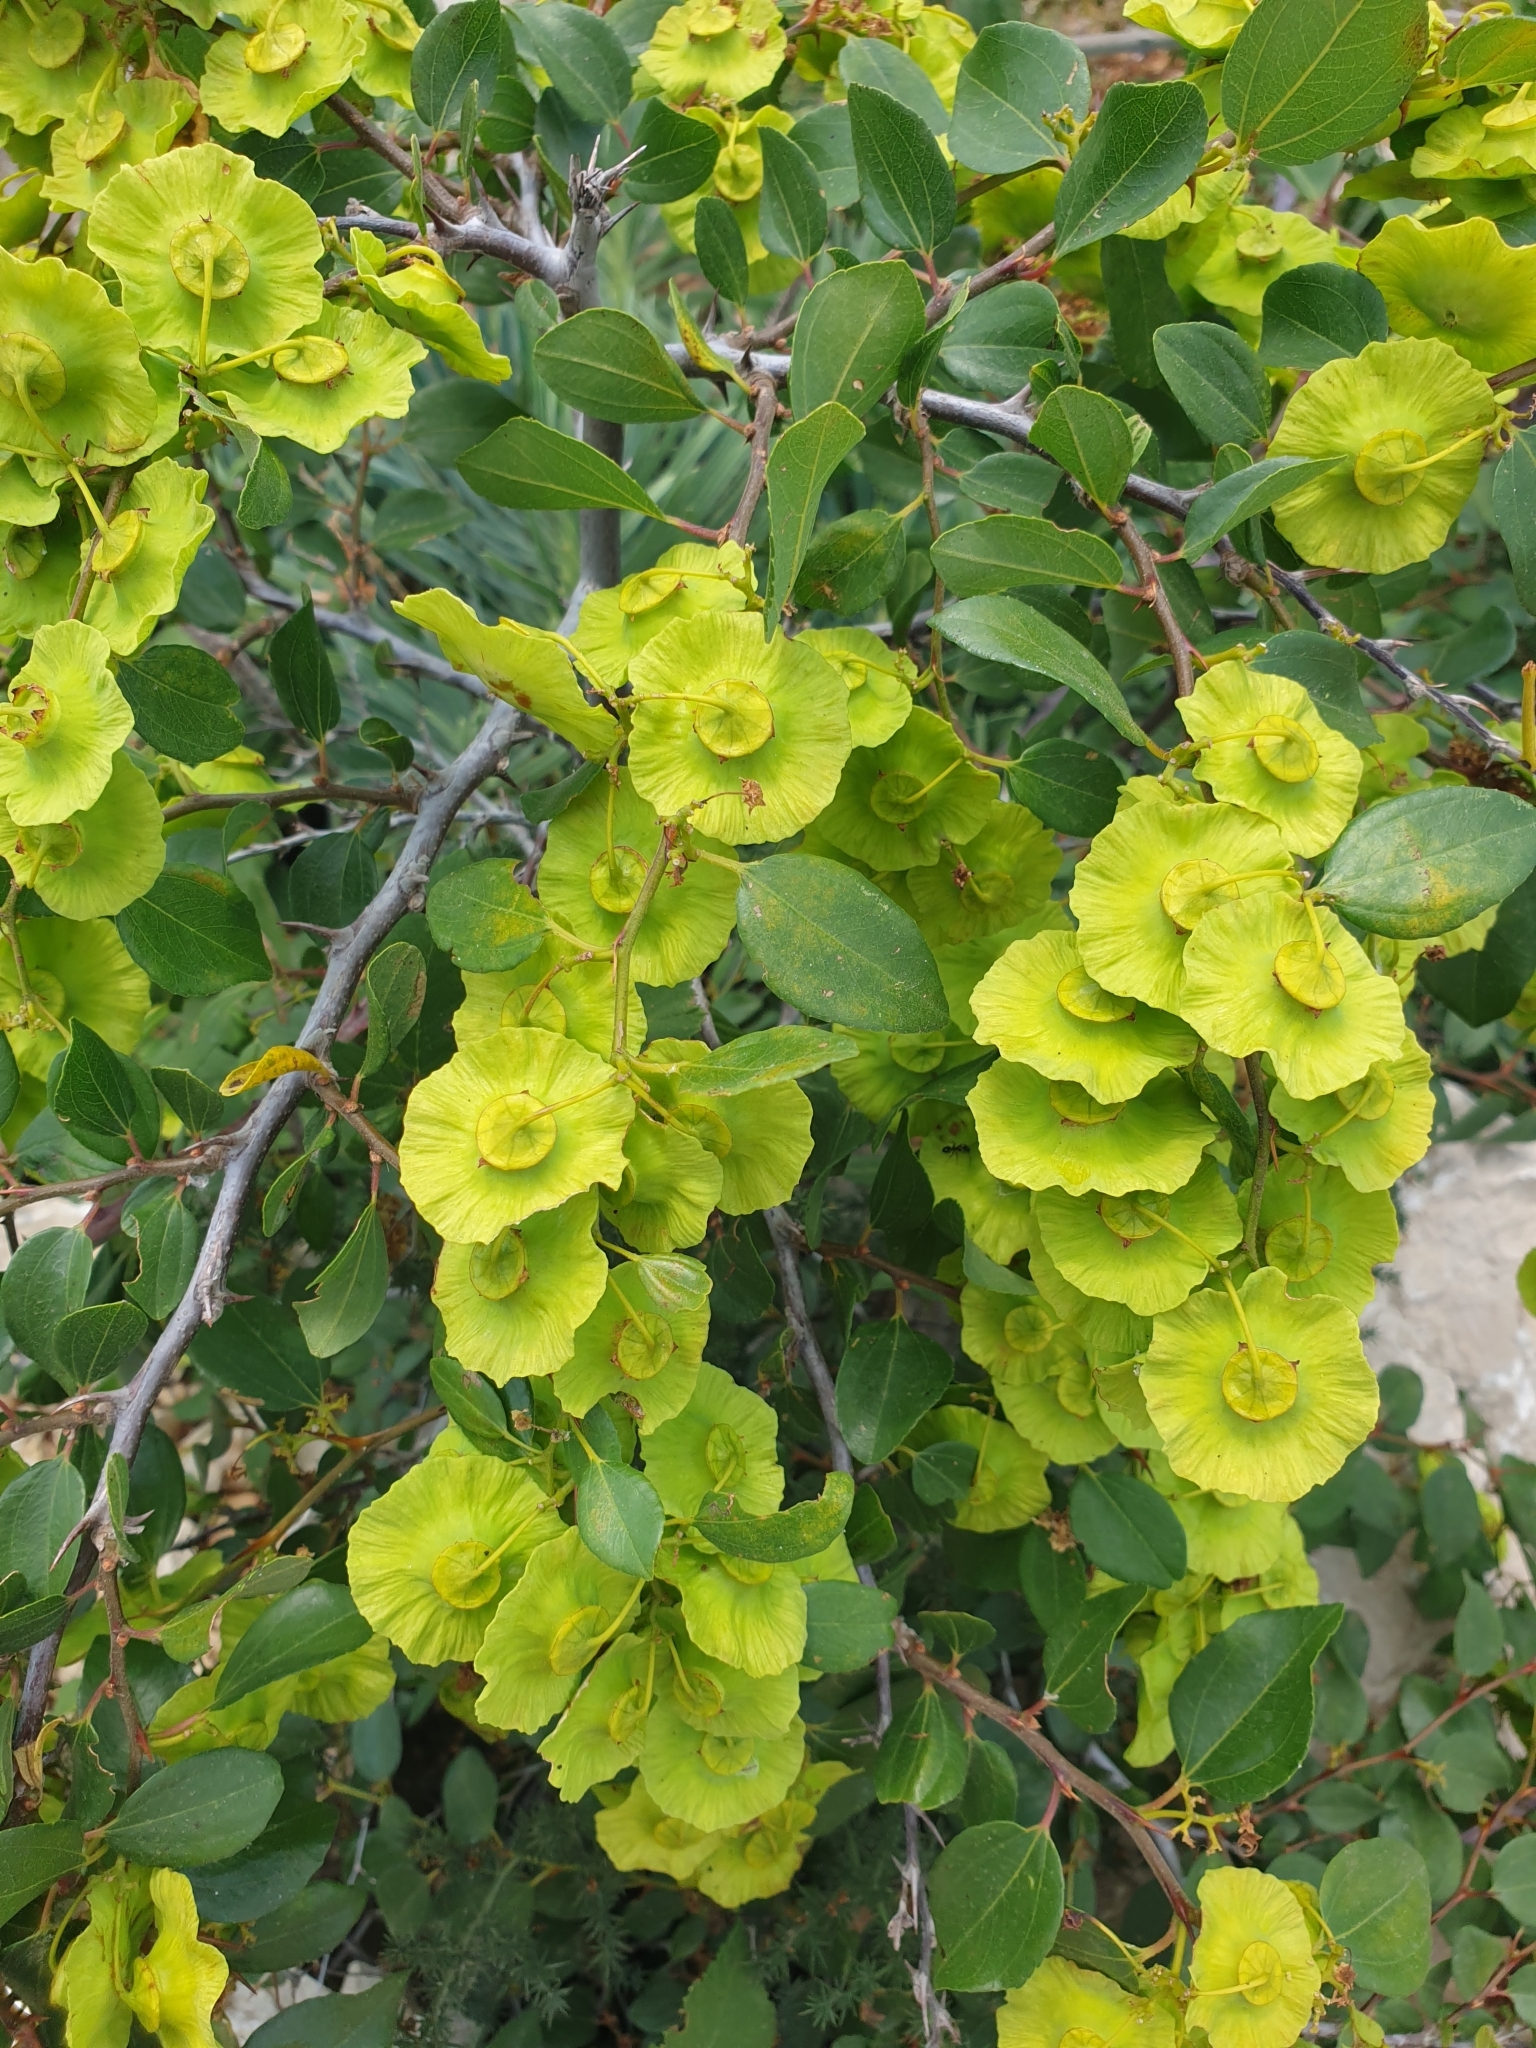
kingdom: Plantae
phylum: Tracheophyta
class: Magnoliopsida
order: Rosales
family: Rhamnaceae
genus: Paliurus
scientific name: Paliurus spina-christi
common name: Jeruselem thorn
